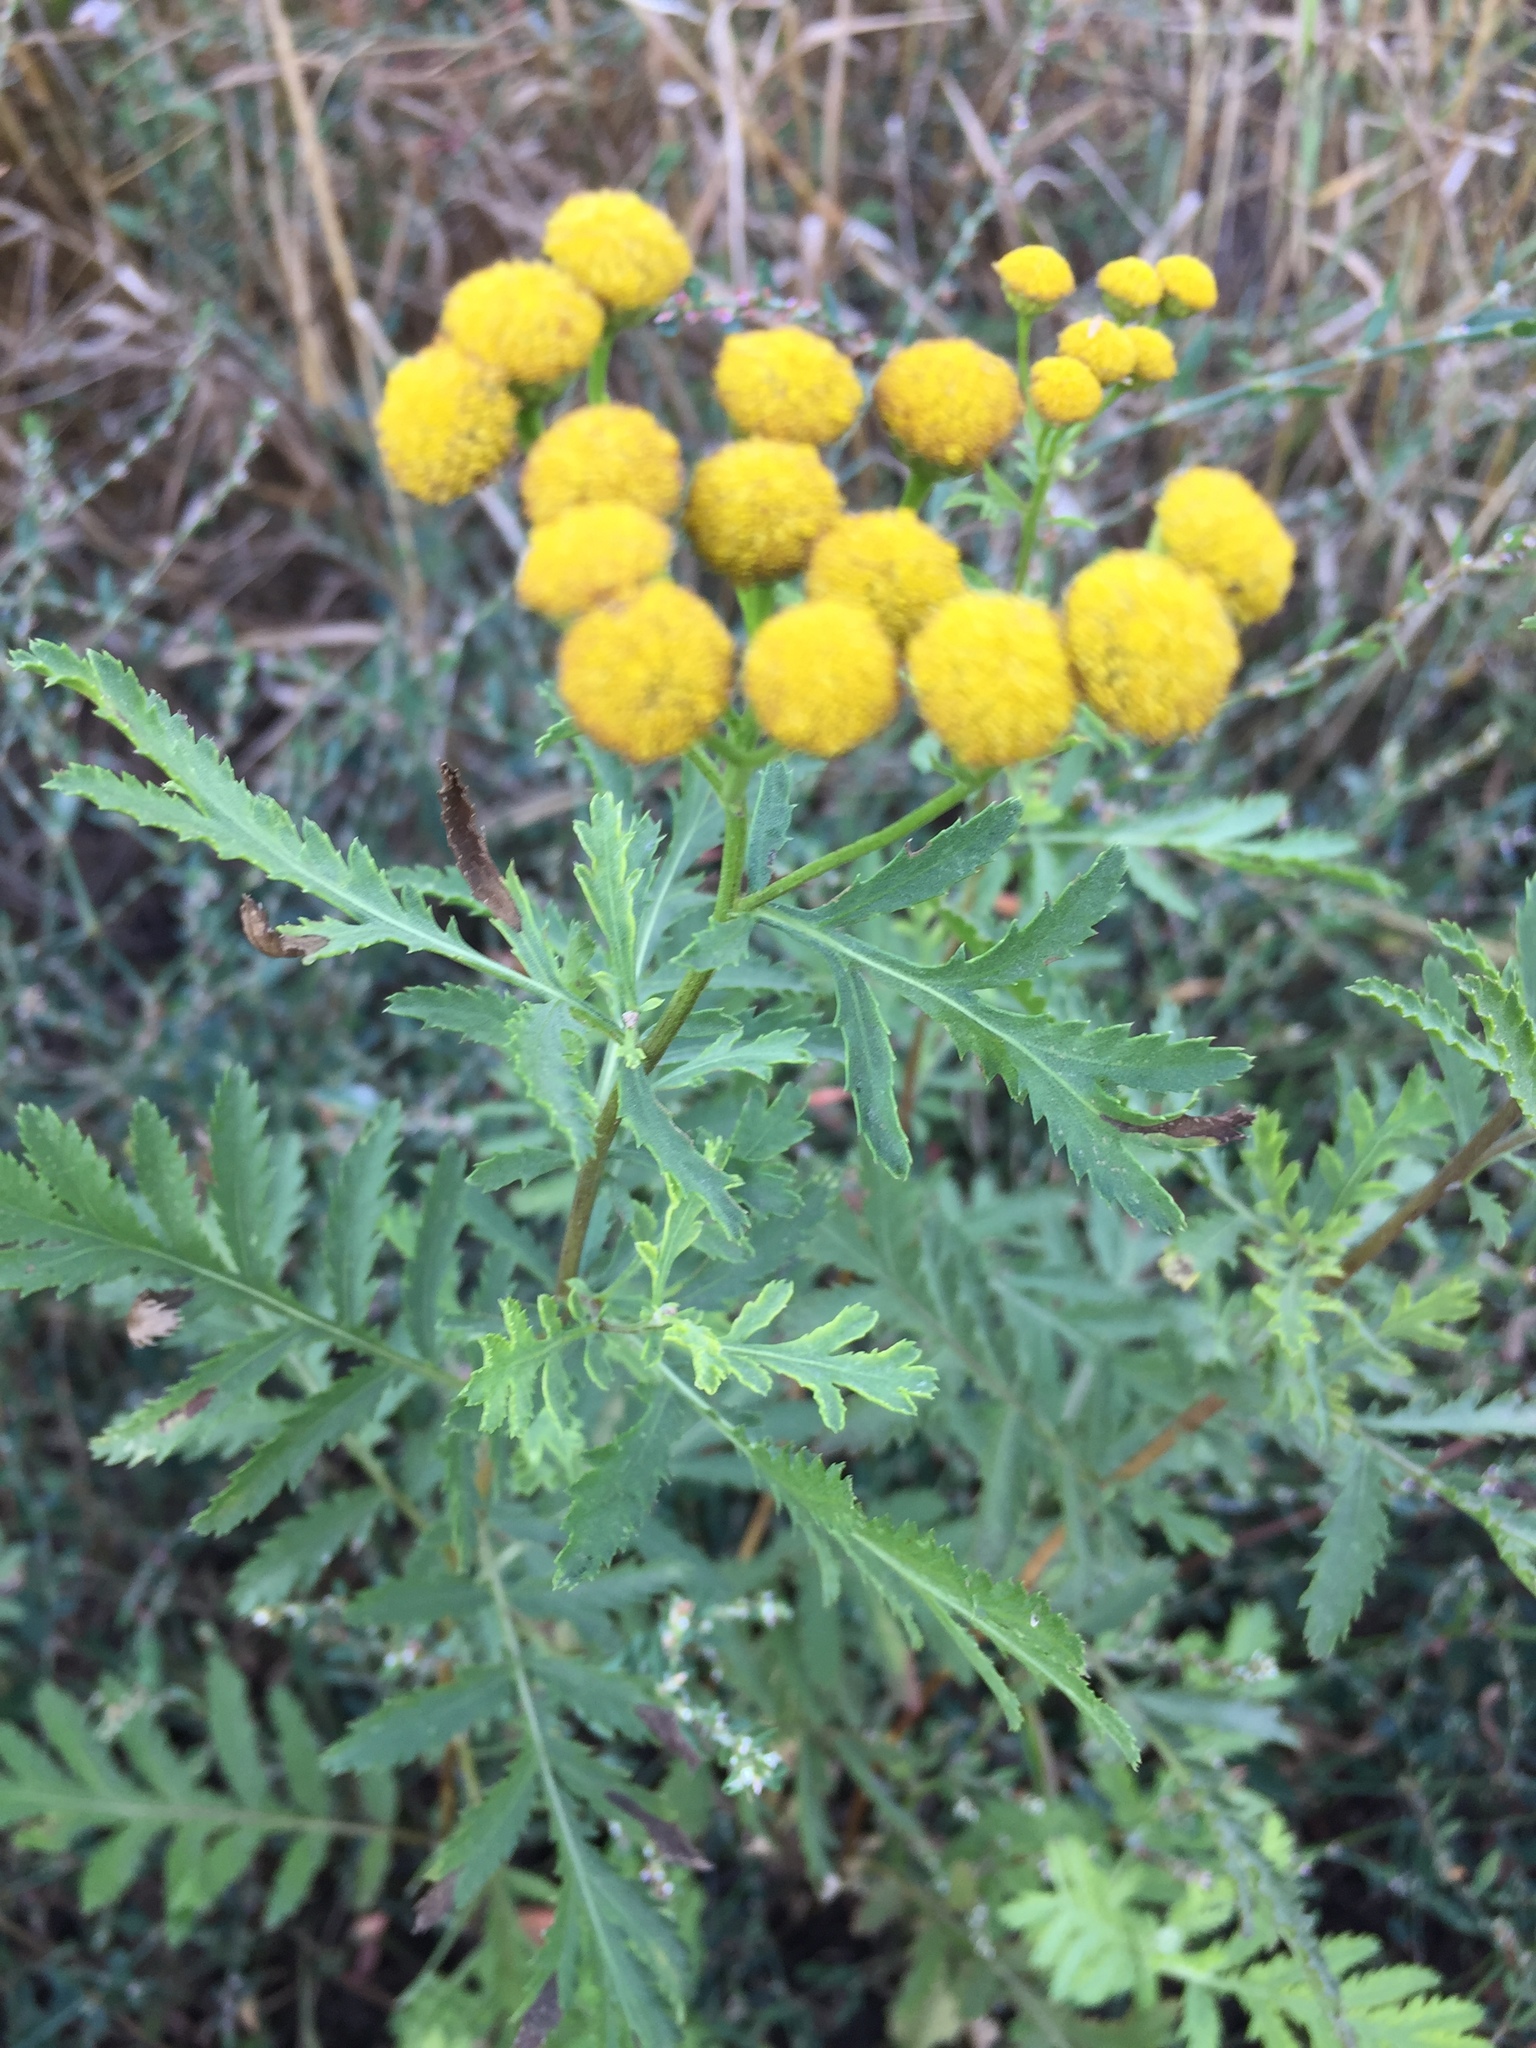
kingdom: Plantae
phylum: Tracheophyta
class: Magnoliopsida
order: Asterales
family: Asteraceae
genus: Tanacetum
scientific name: Tanacetum vulgare
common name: Common tansy
